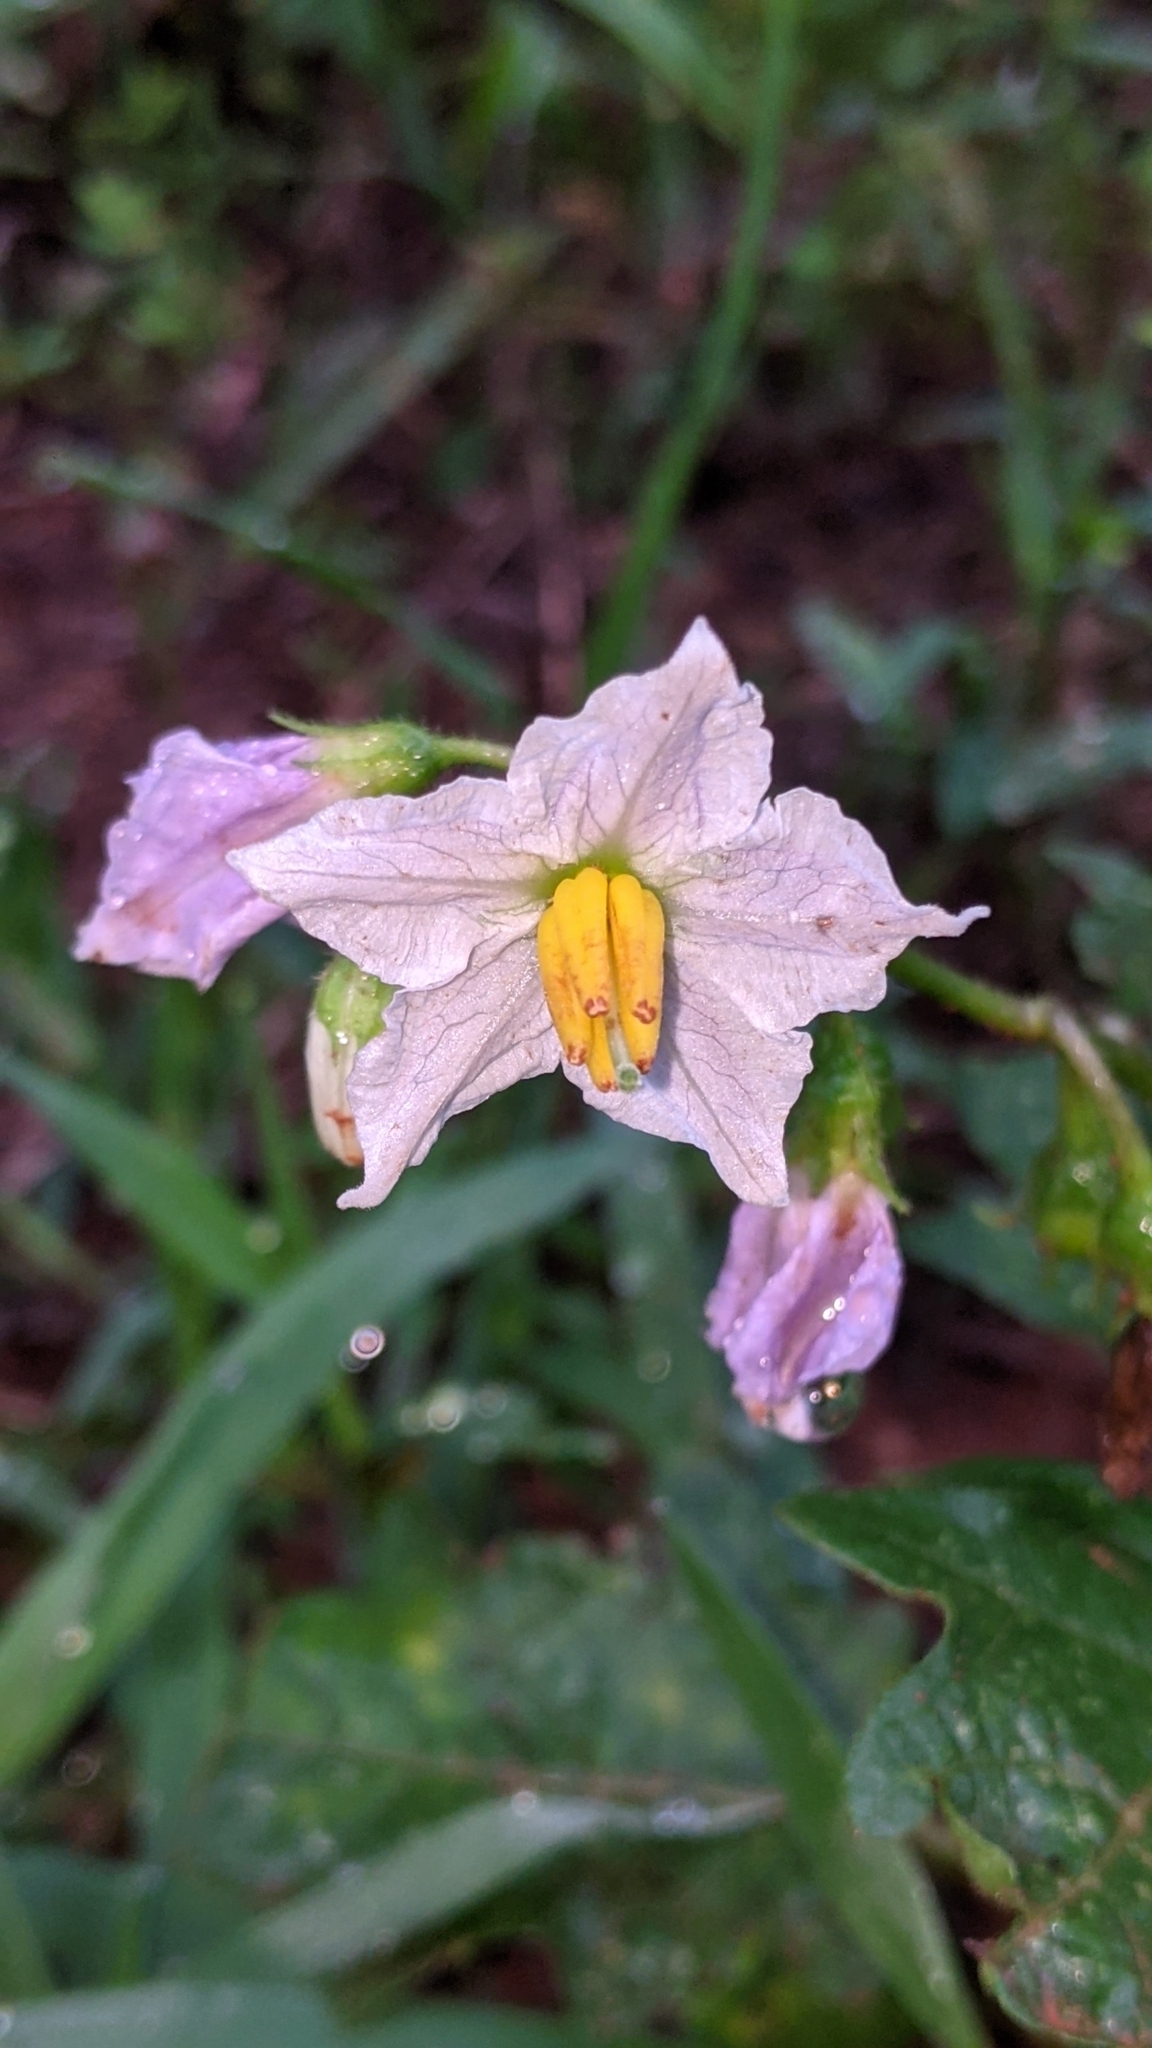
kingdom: Plantae
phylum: Tracheophyta
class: Magnoliopsida
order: Solanales
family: Solanaceae
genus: Solanum
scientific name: Solanum carolinense
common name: Horse-nettle
